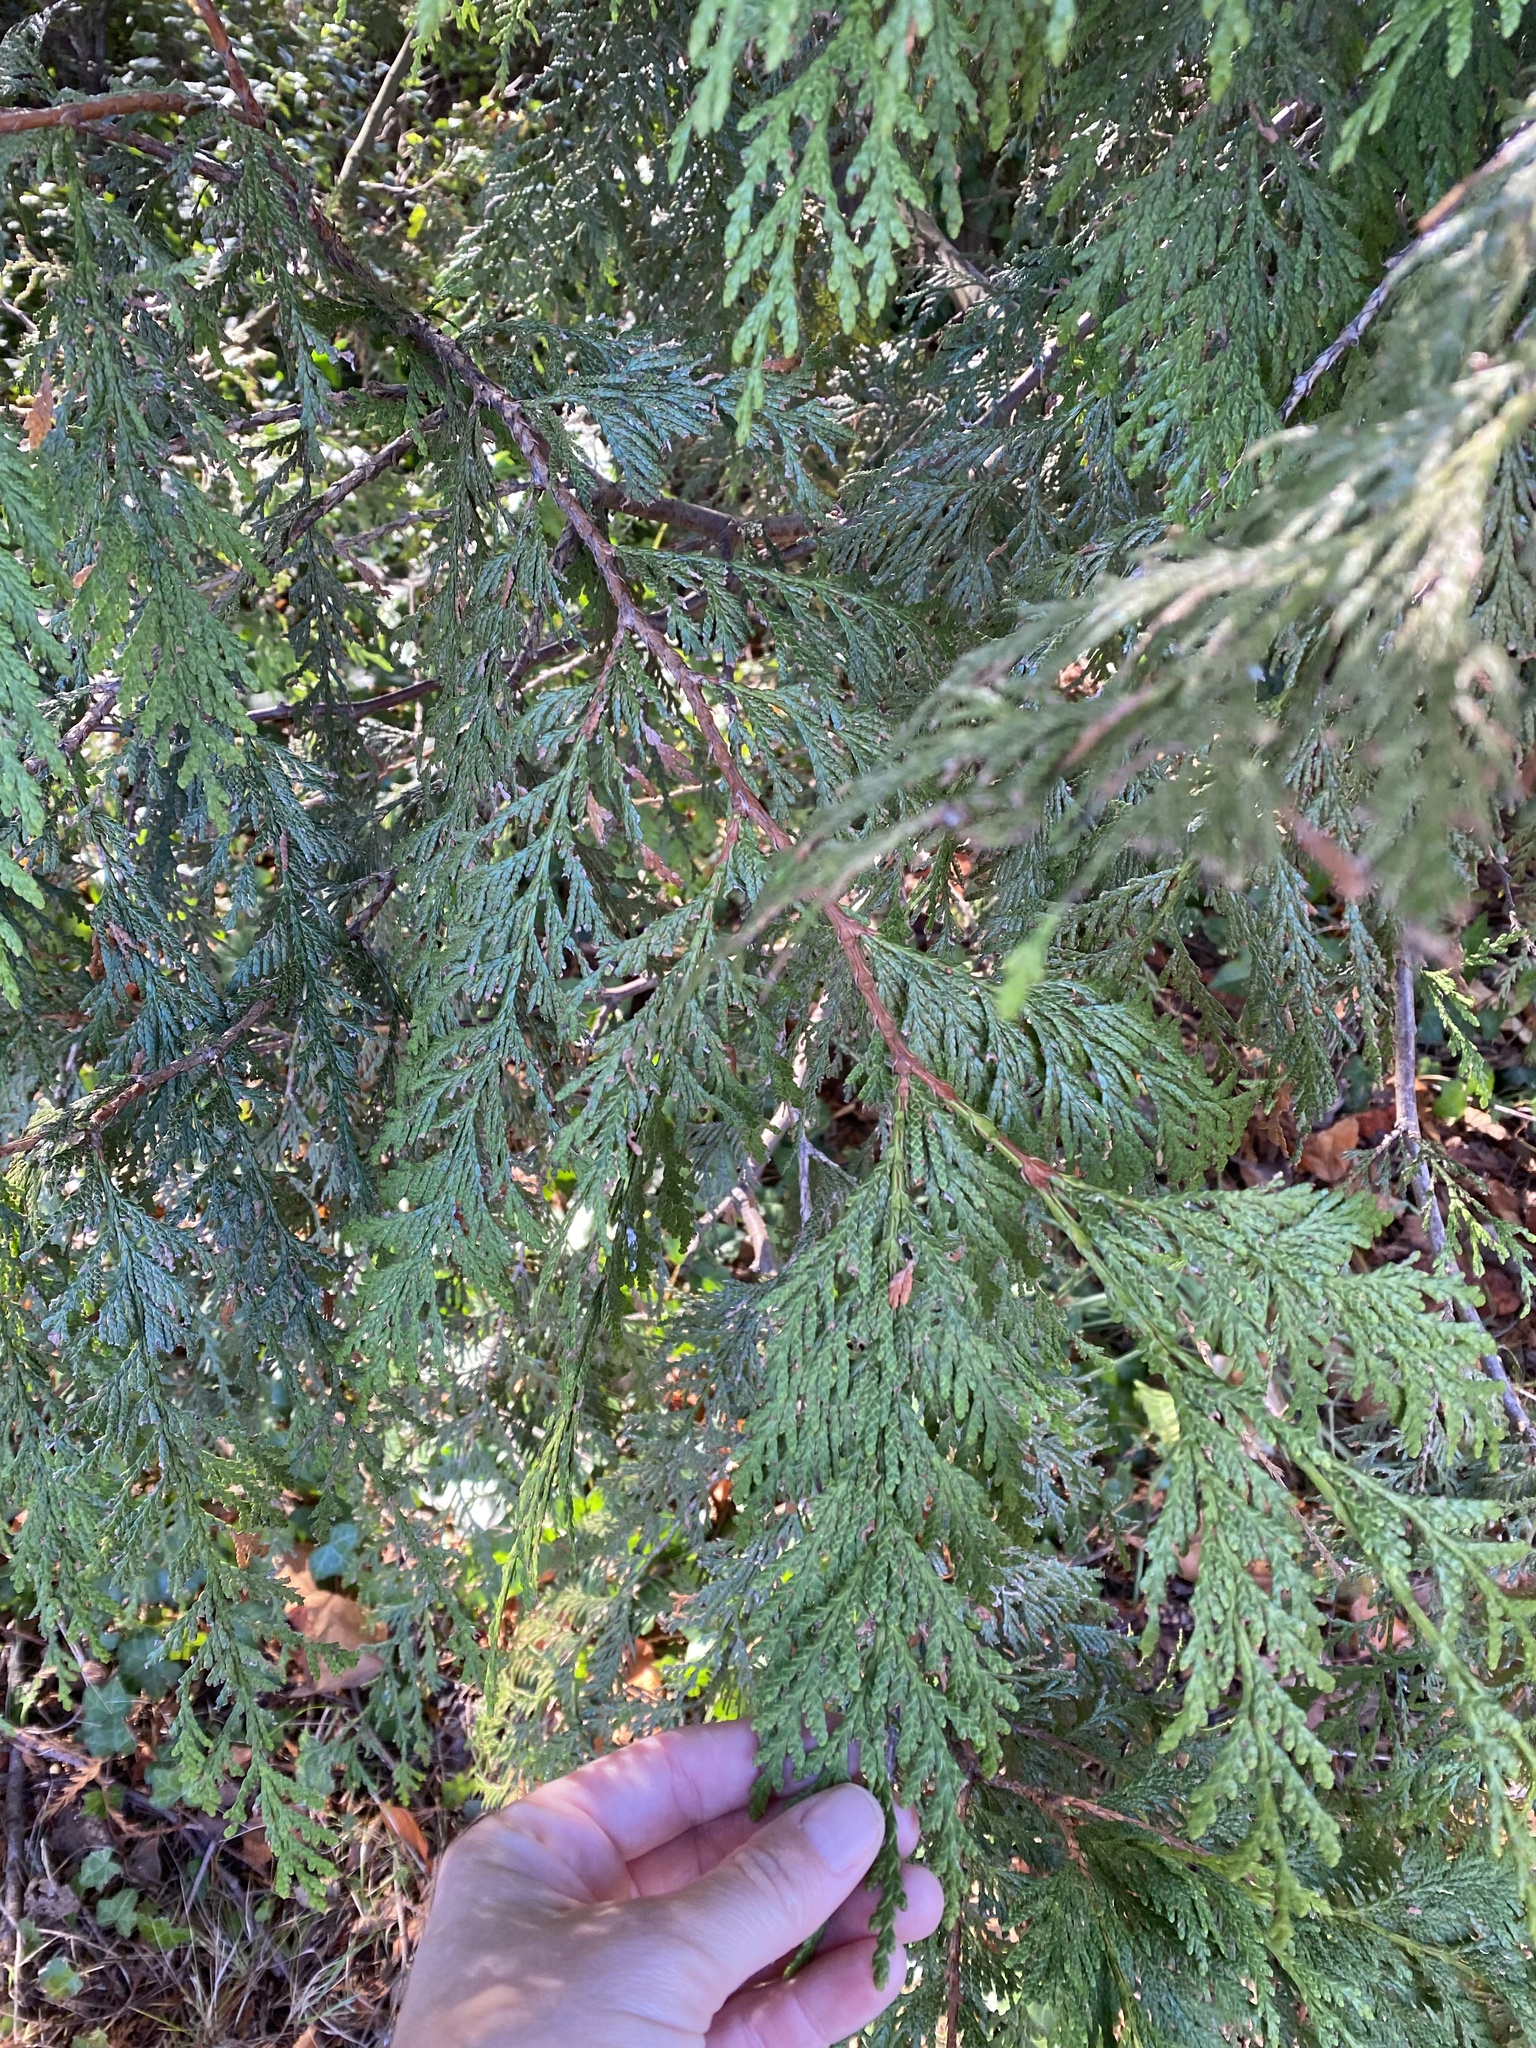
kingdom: Plantae
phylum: Tracheophyta
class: Pinopsida
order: Pinales
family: Cupressaceae
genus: Thuja
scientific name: Thuja plicata
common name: Western red-cedar
